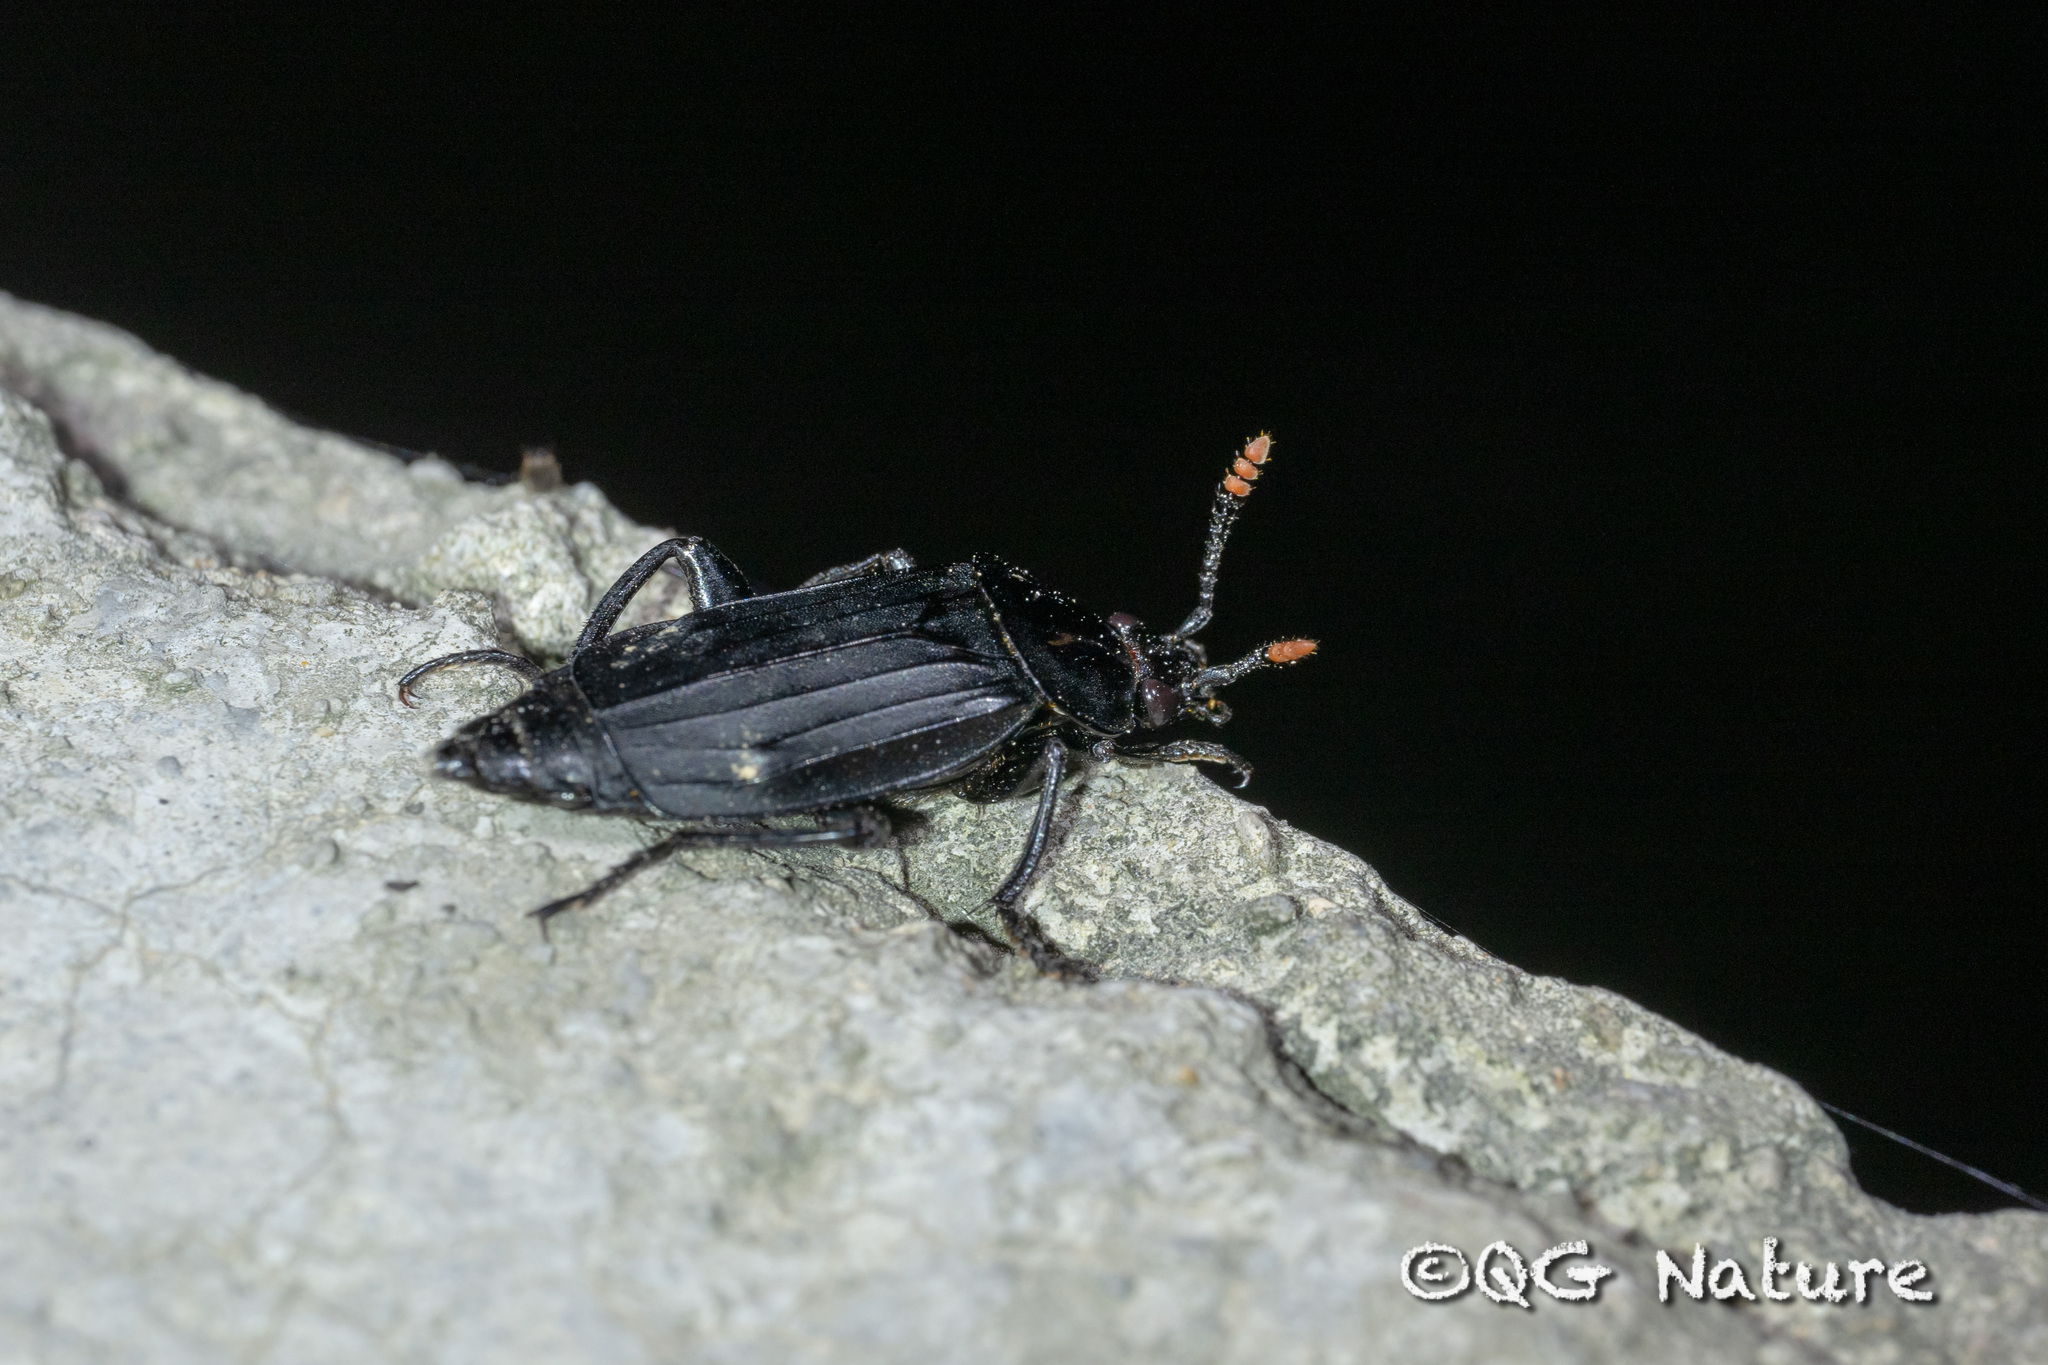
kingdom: Animalia
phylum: Arthropoda
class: Insecta
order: Coleoptera
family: Staphylinidae
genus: Necrodes
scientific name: Necrodes littoralis
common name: Shore sexton beetle
